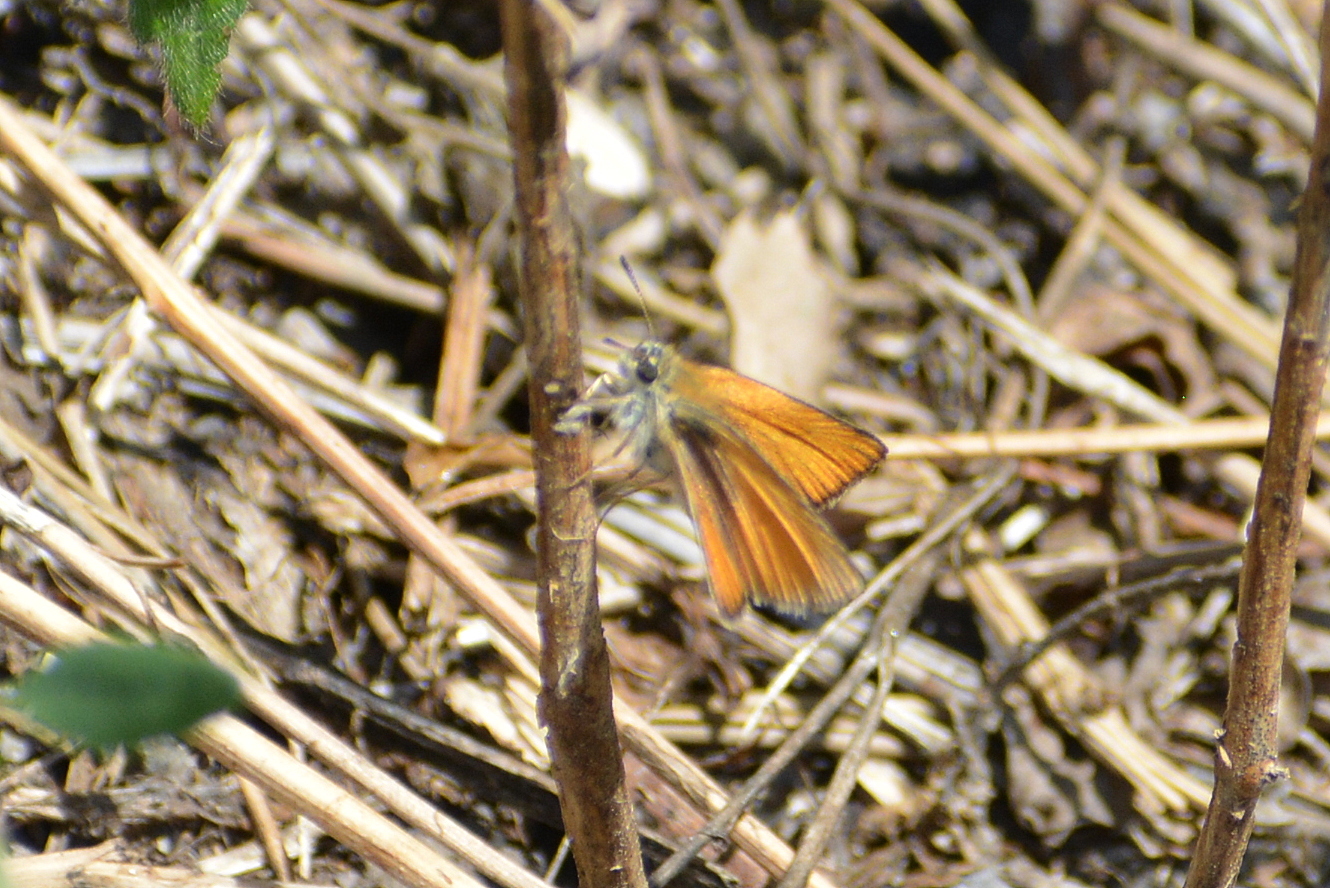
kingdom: Animalia
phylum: Arthropoda
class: Insecta
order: Lepidoptera
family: Hesperiidae
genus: Thymelicus
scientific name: Thymelicus lineola
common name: Essex skipper
